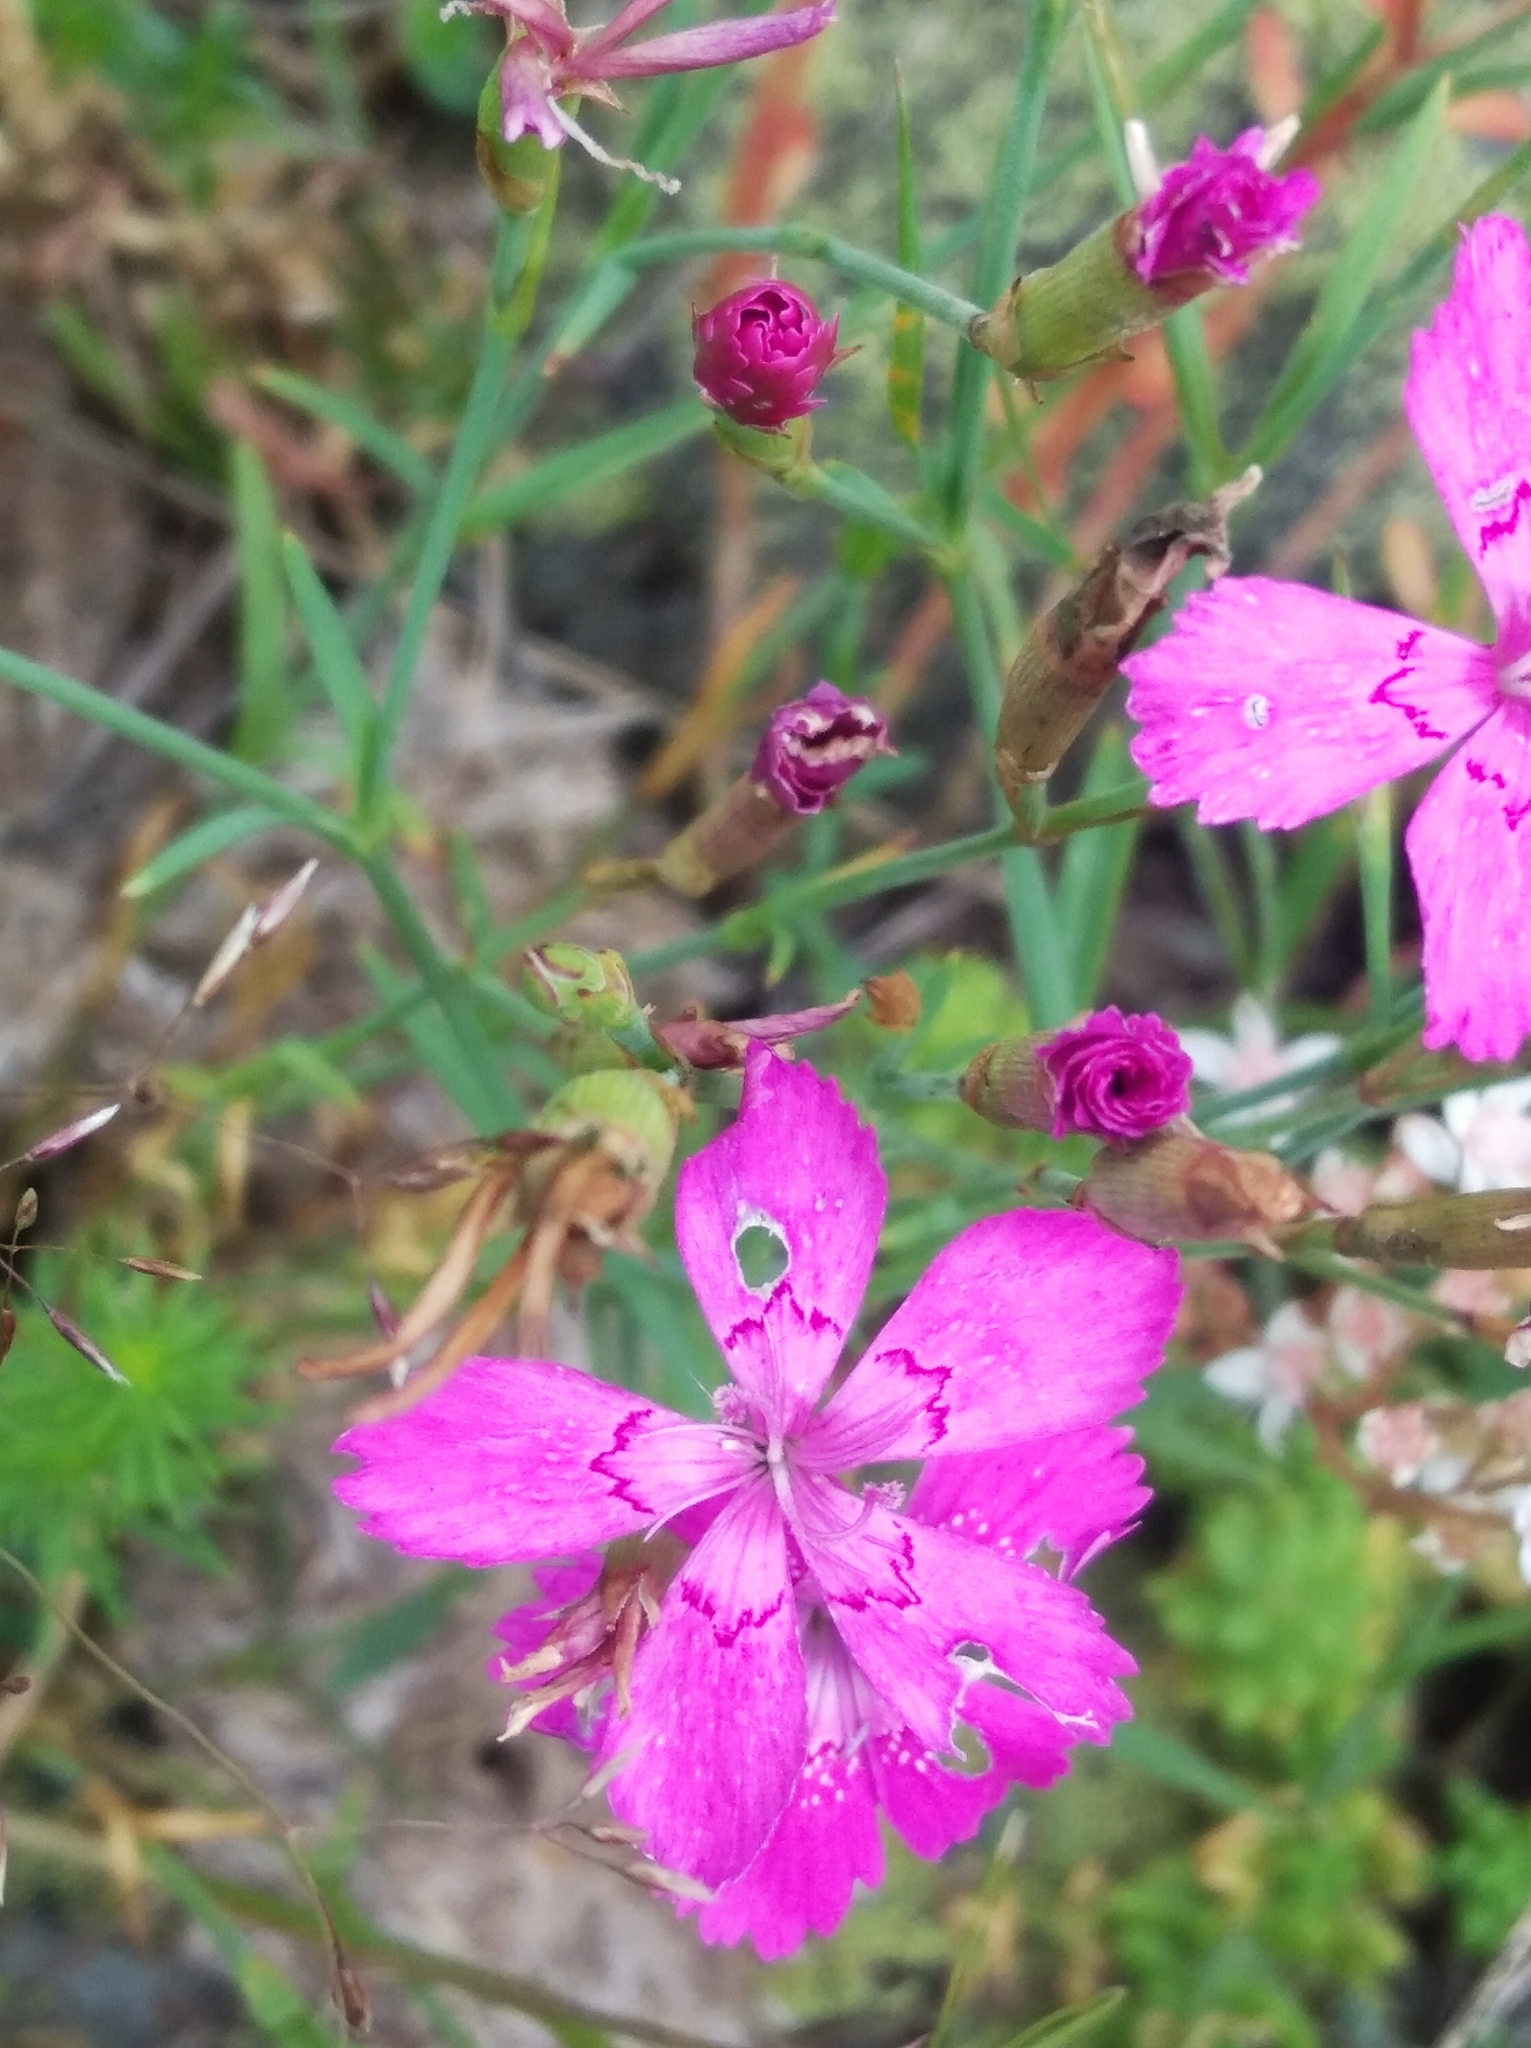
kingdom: Plantae
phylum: Tracheophyta
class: Magnoliopsida
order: Caryophyllales
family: Caryophyllaceae
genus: Dianthus
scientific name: Dianthus deltoides
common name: Maiden pink
